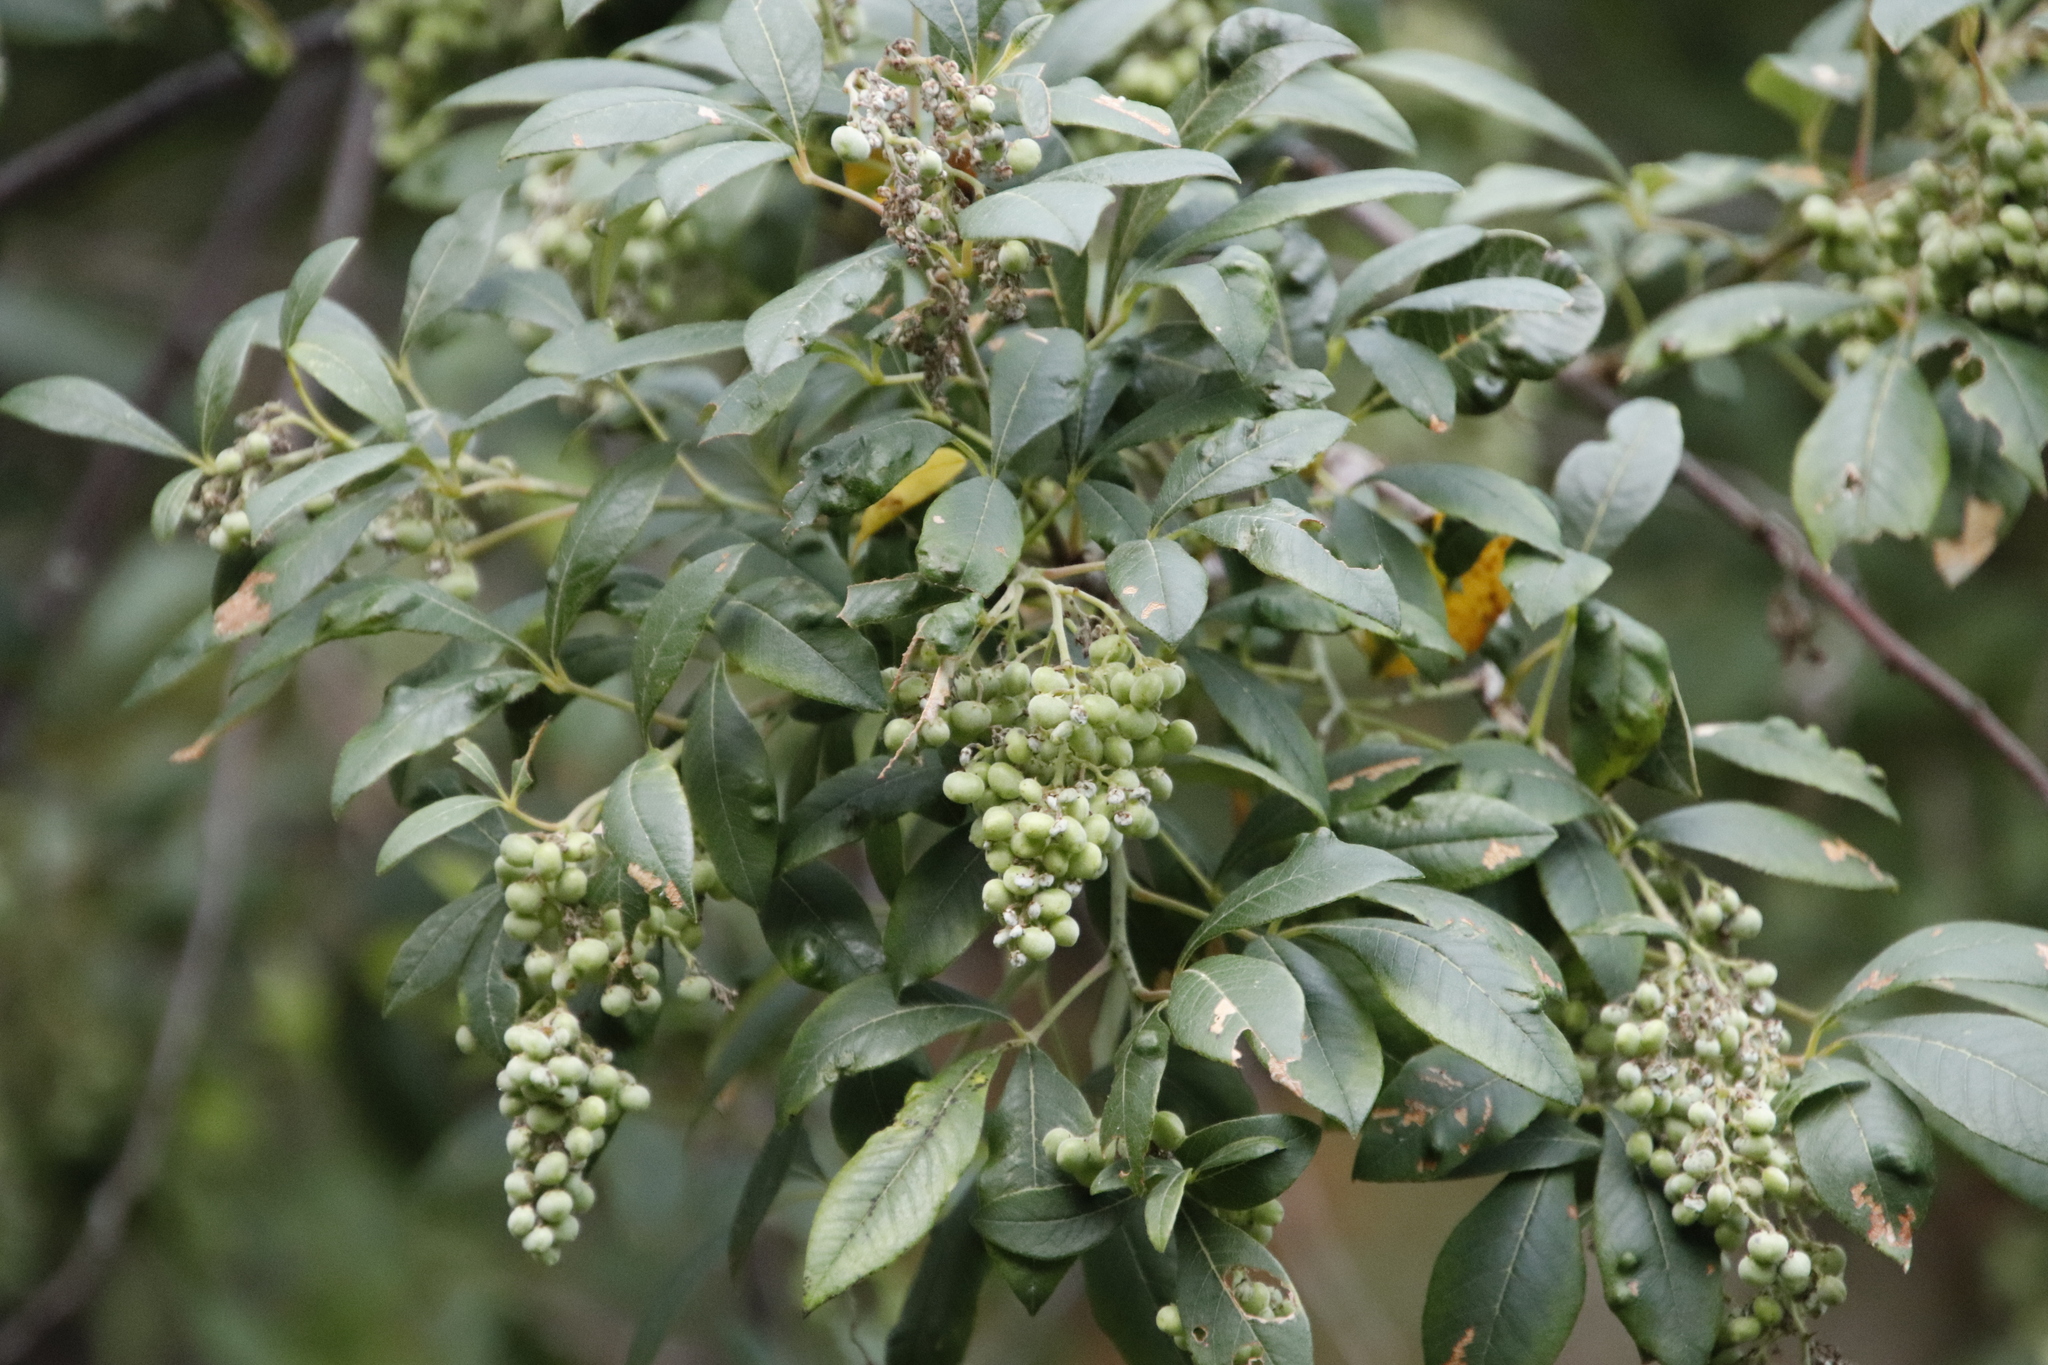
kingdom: Plantae
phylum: Tracheophyta
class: Magnoliopsida
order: Sapindales
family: Anacardiaceae
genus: Searsia
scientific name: Searsia tomentosa
